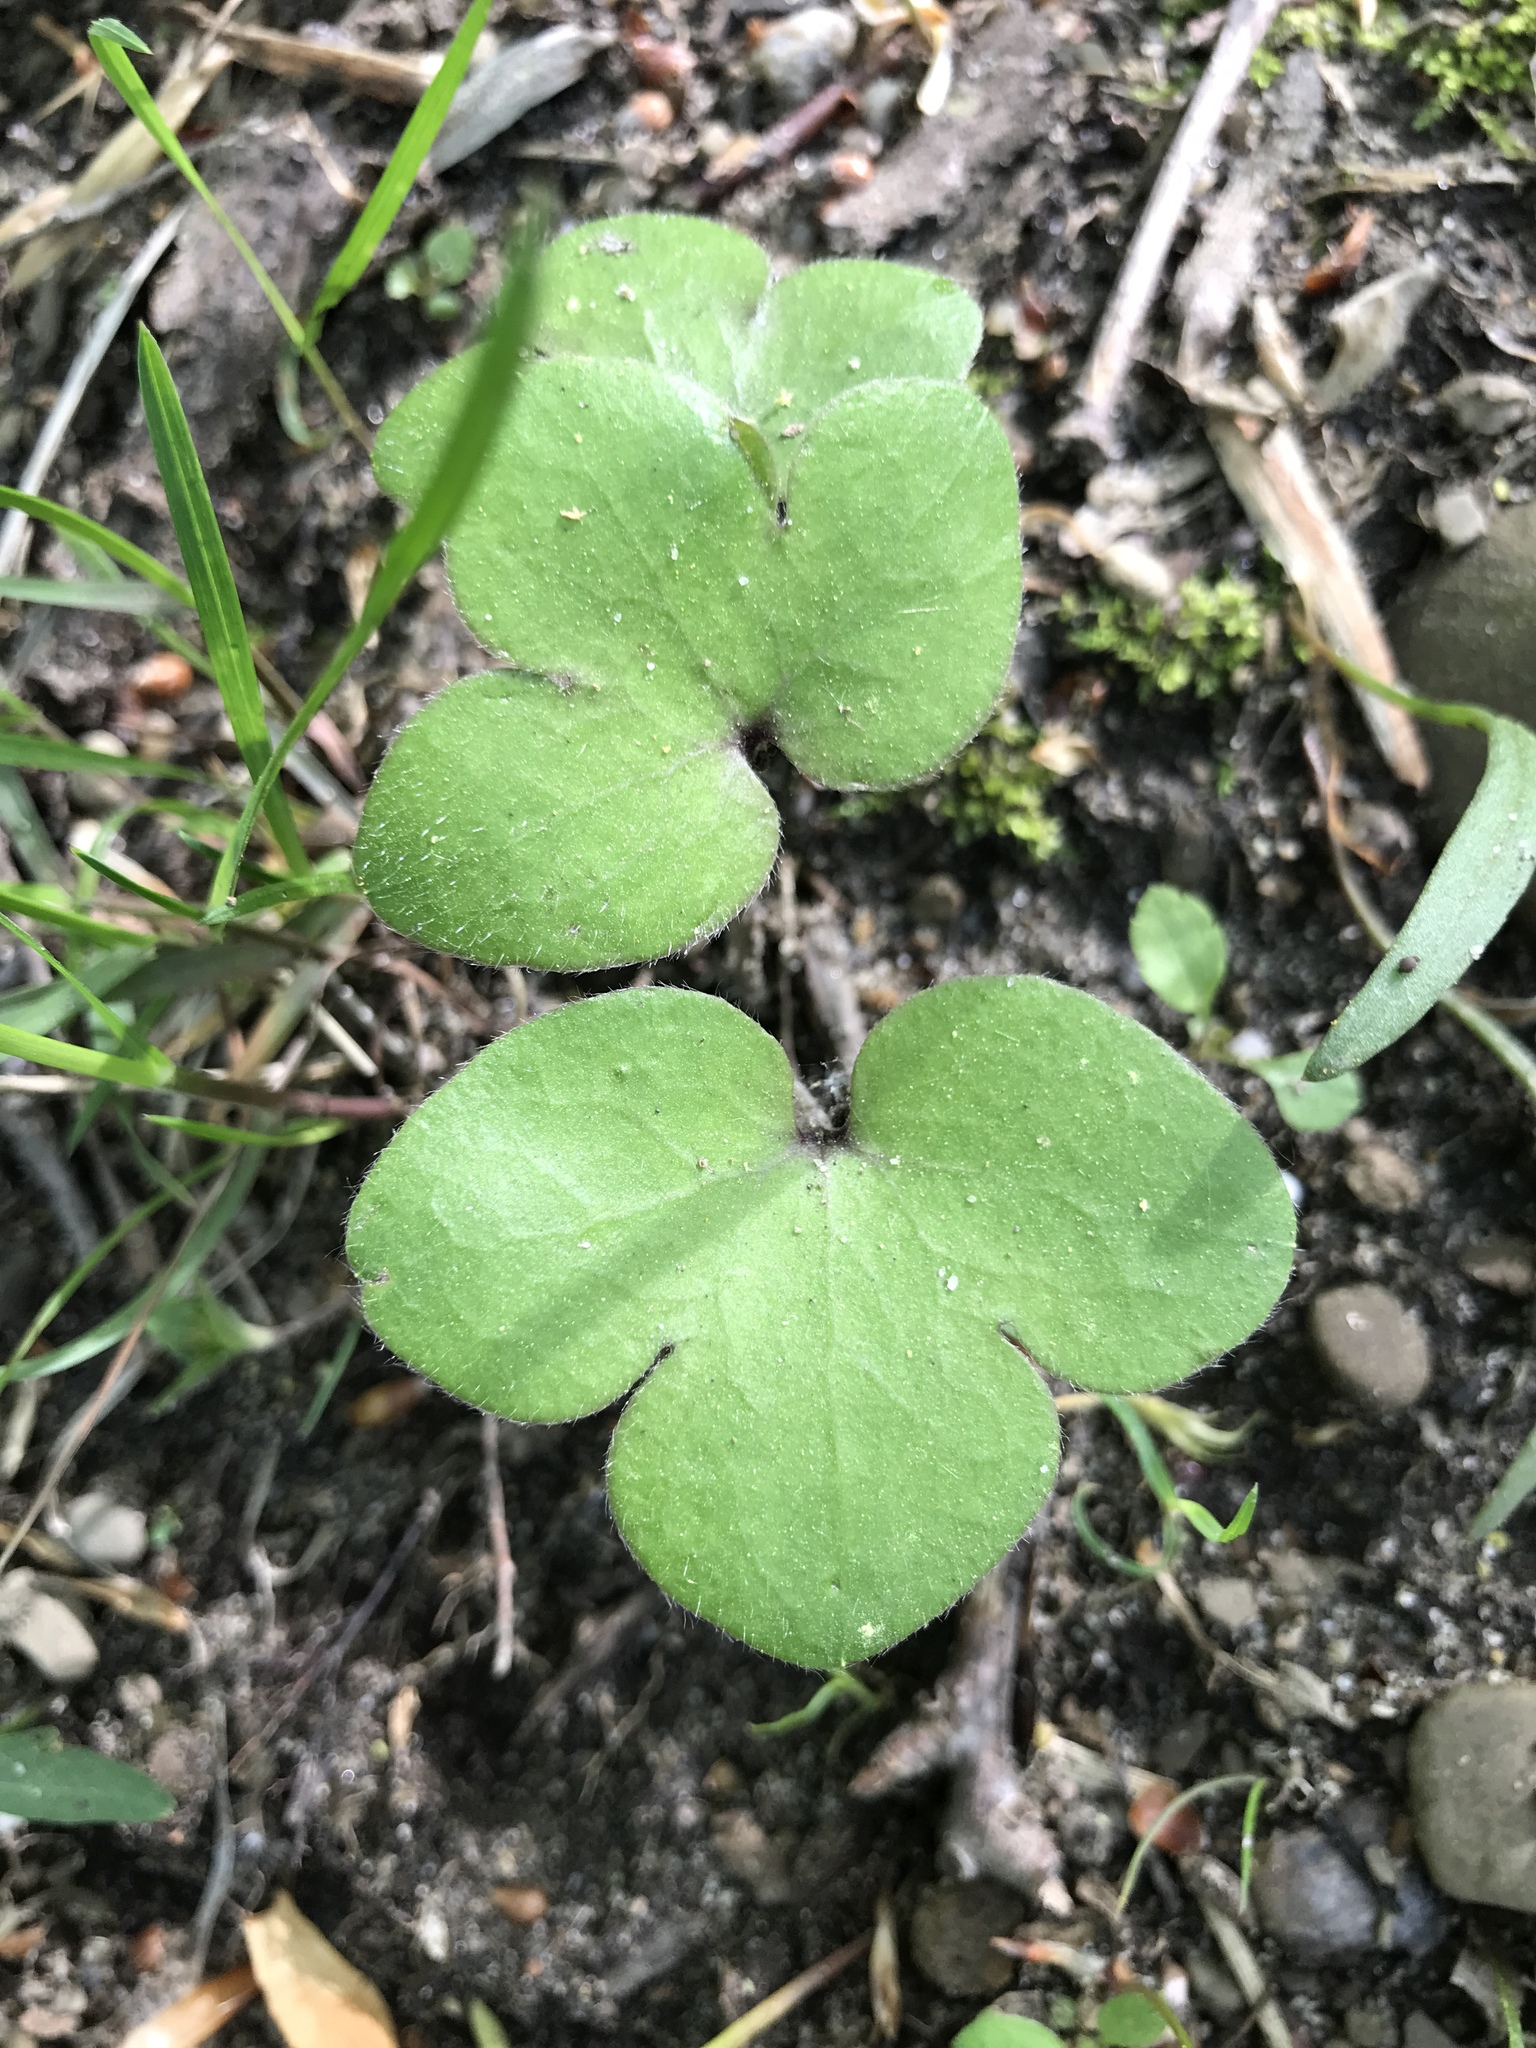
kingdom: Plantae
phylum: Tracheophyta
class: Magnoliopsida
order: Ranunculales
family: Ranunculaceae
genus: Hepatica
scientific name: Hepatica americana
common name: American hepatica
